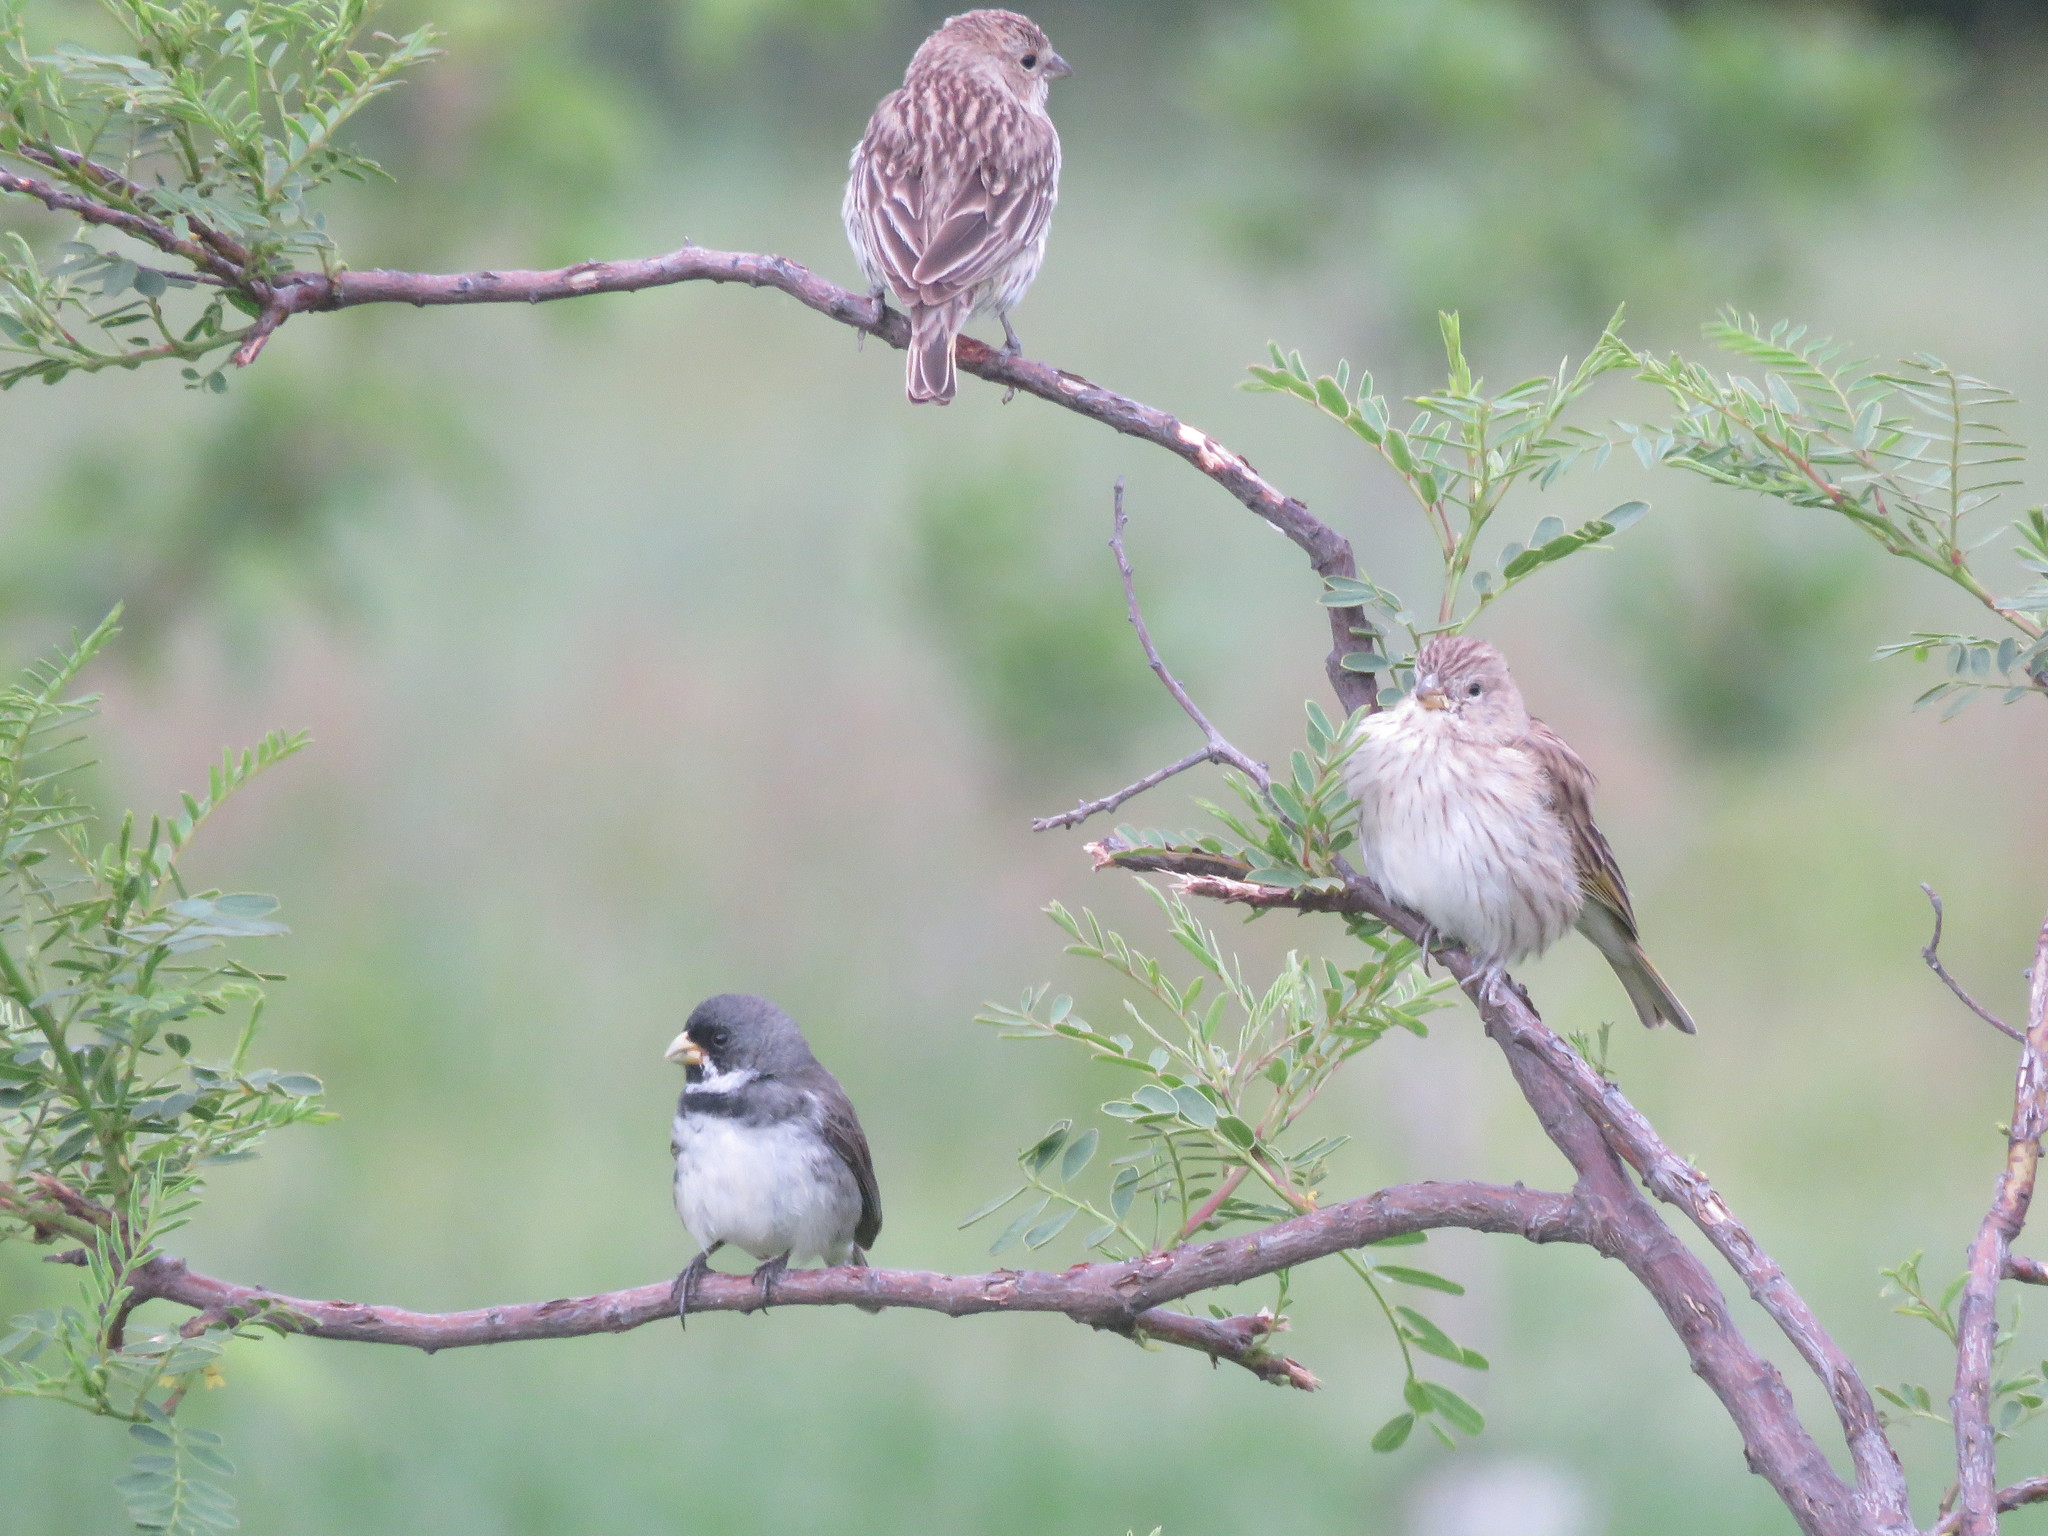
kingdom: Animalia
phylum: Chordata
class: Aves
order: Passeriformes
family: Thraupidae
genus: Sporophila
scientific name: Sporophila caerulescens
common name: Double-collared seedeater
